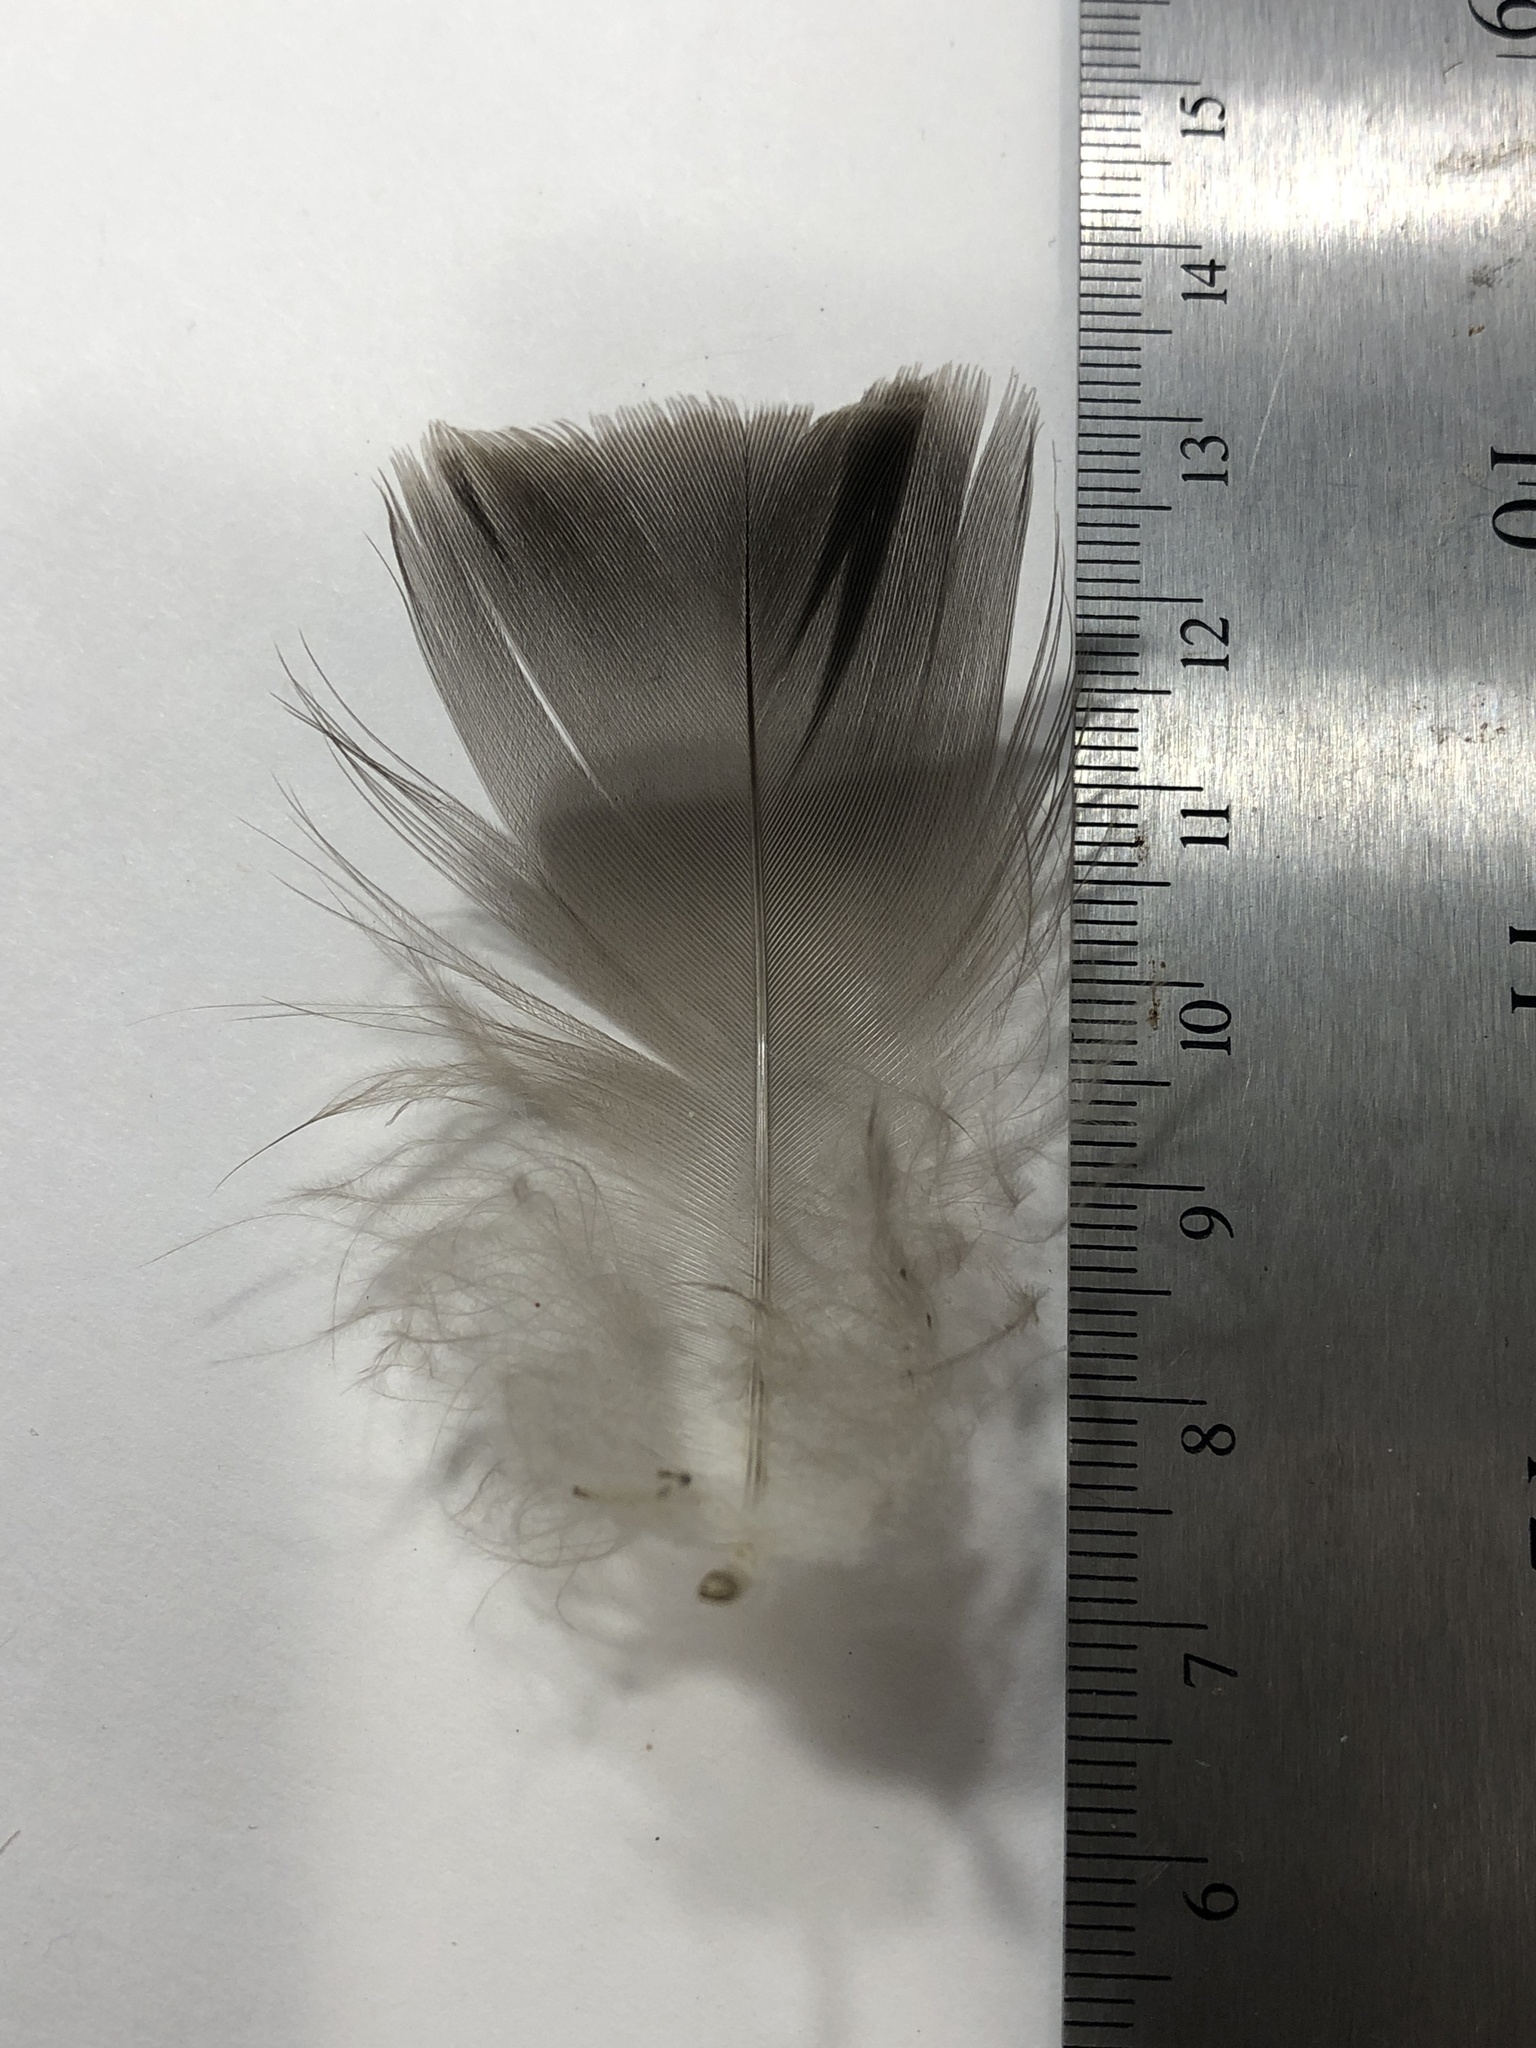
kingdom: Animalia
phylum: Chordata
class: Aves
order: Anseriformes
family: Anatidae
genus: Branta
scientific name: Branta canadensis
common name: Canada goose
